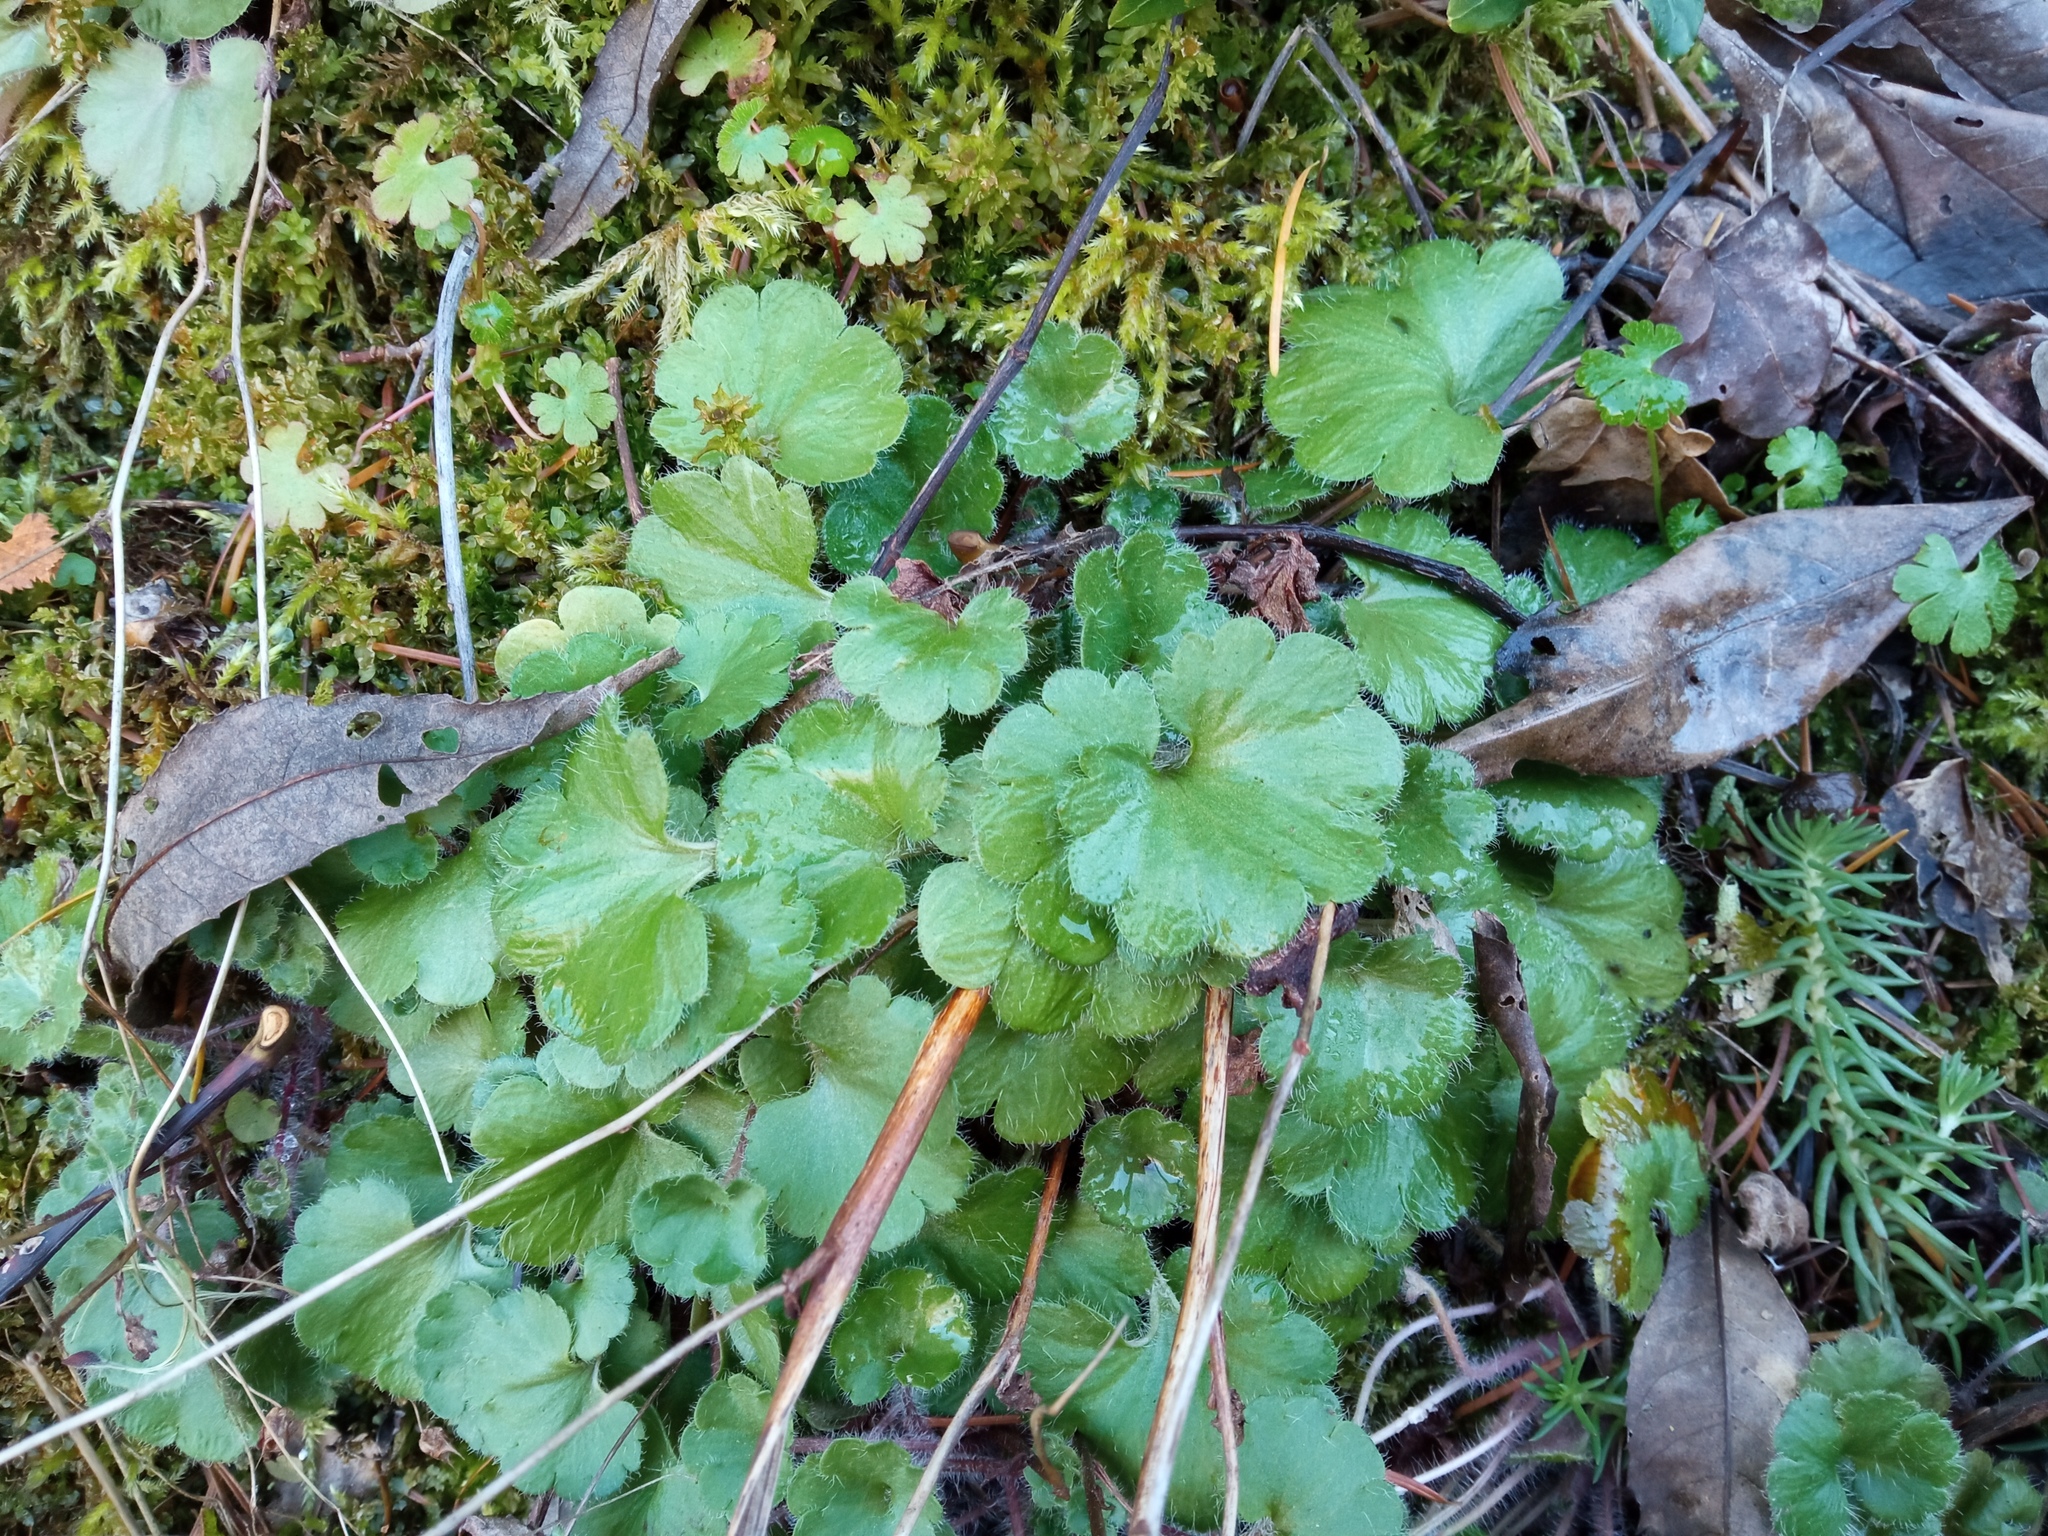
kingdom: Plantae
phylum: Tracheophyta
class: Magnoliopsida
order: Saxifragales
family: Saxifragaceae
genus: Saxifraga
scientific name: Saxifraga granulata
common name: Meadow saxifrage
